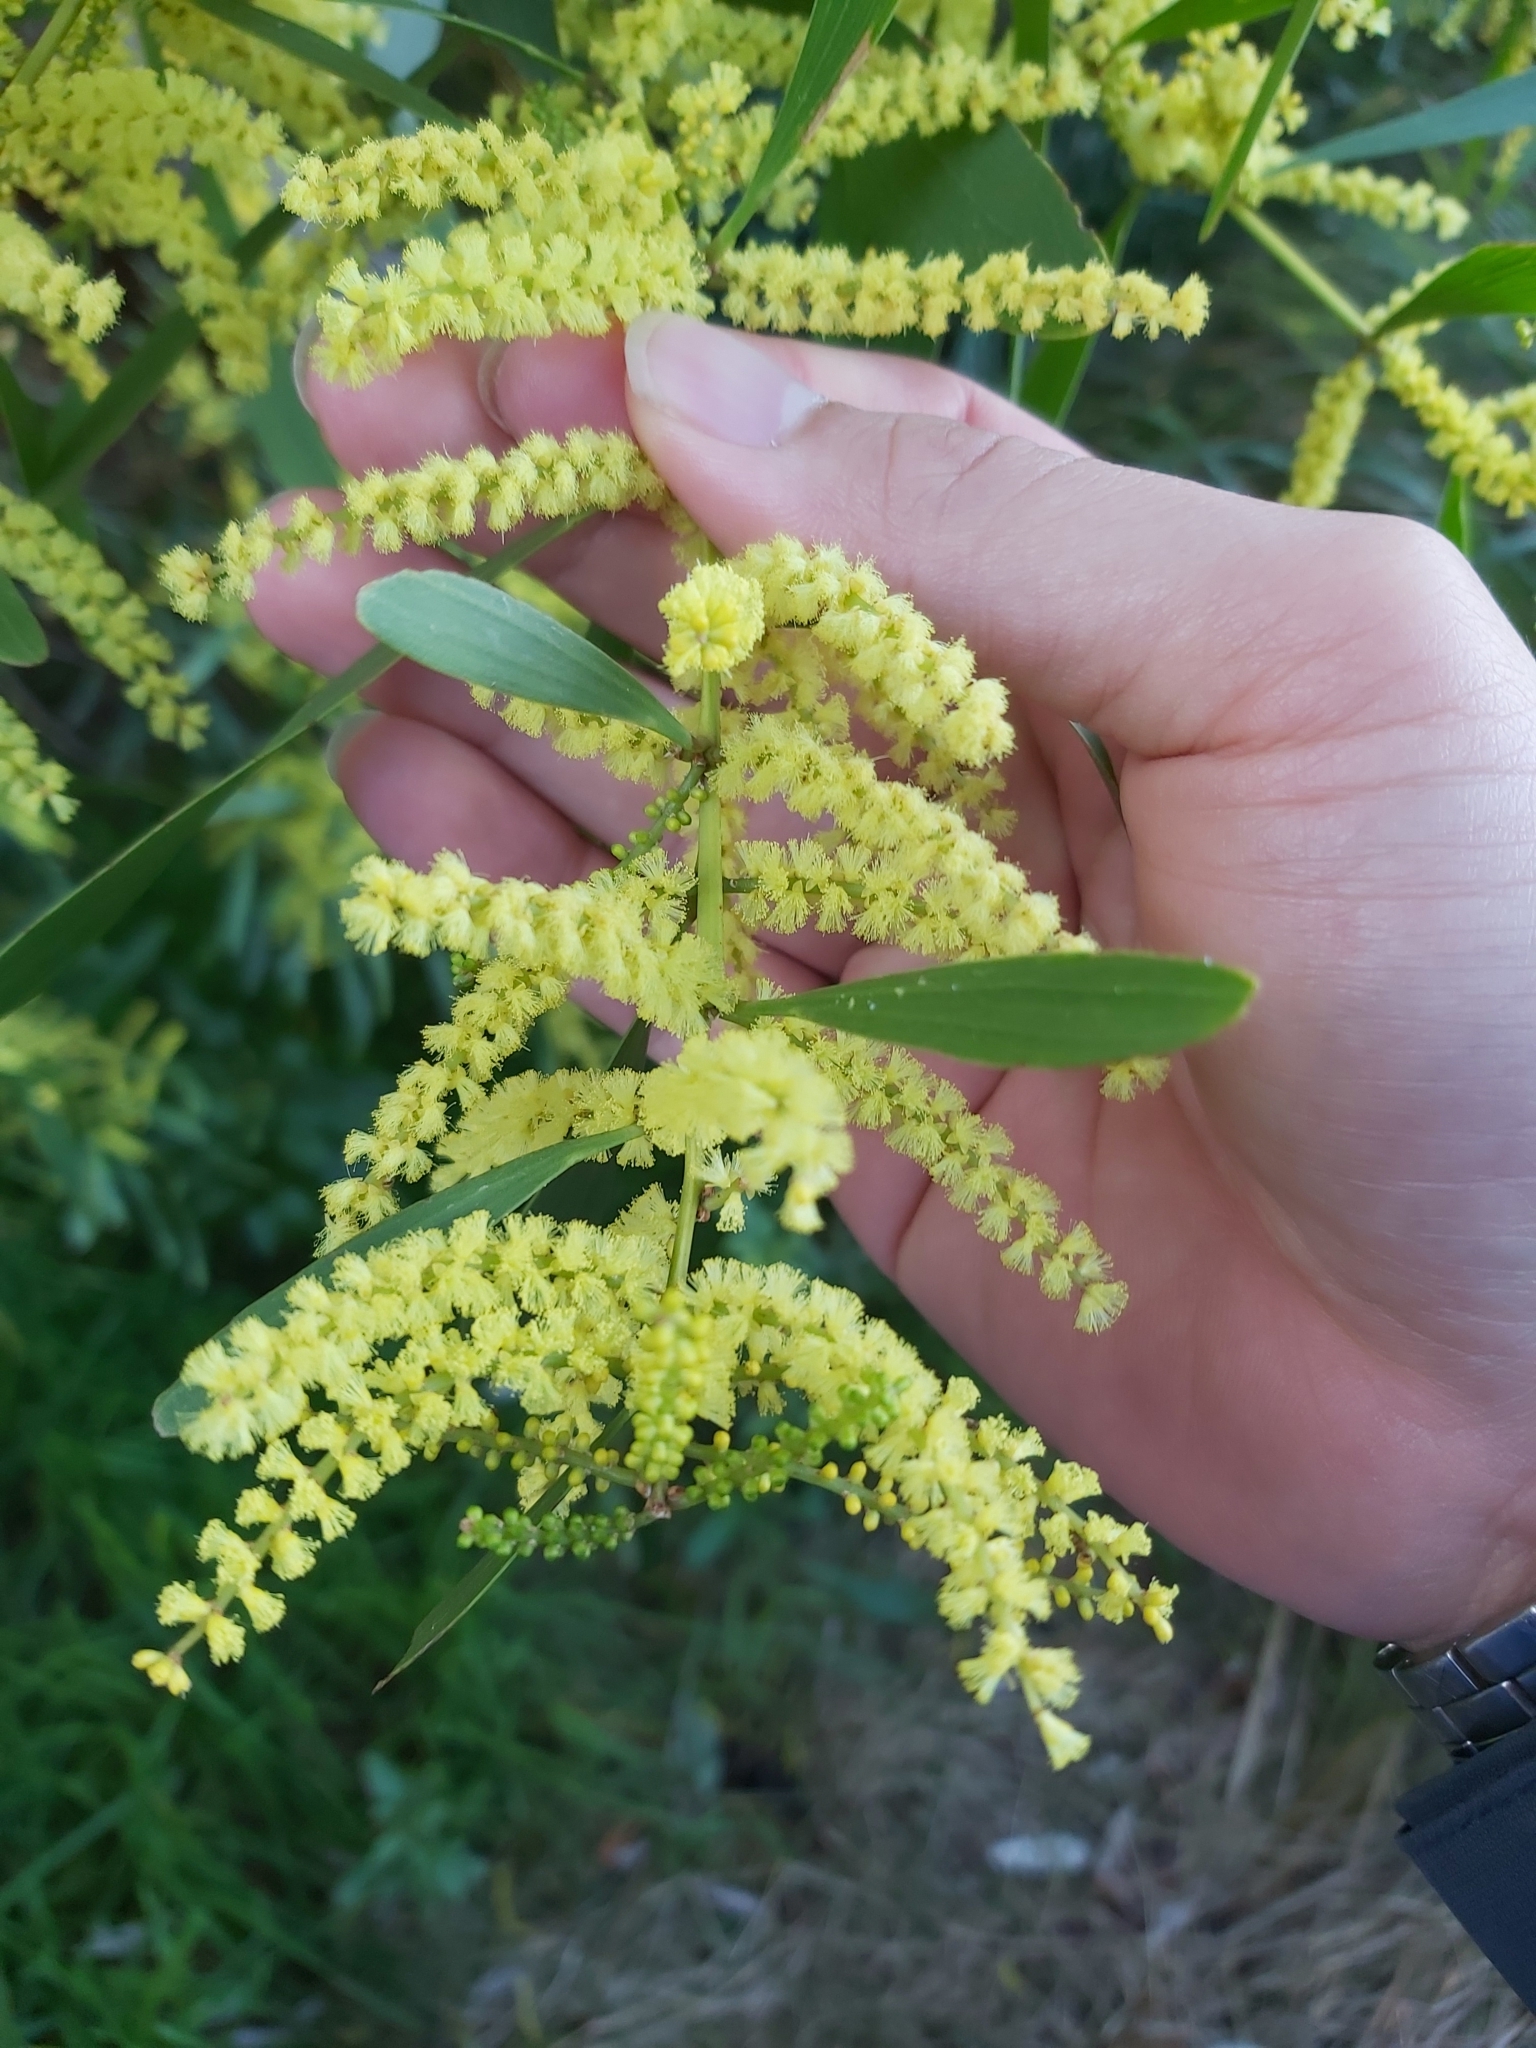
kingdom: Plantae
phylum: Tracheophyta
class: Magnoliopsida
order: Fabales
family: Fabaceae
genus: Acacia
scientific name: Acacia longifolia
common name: Sydney golden wattle
